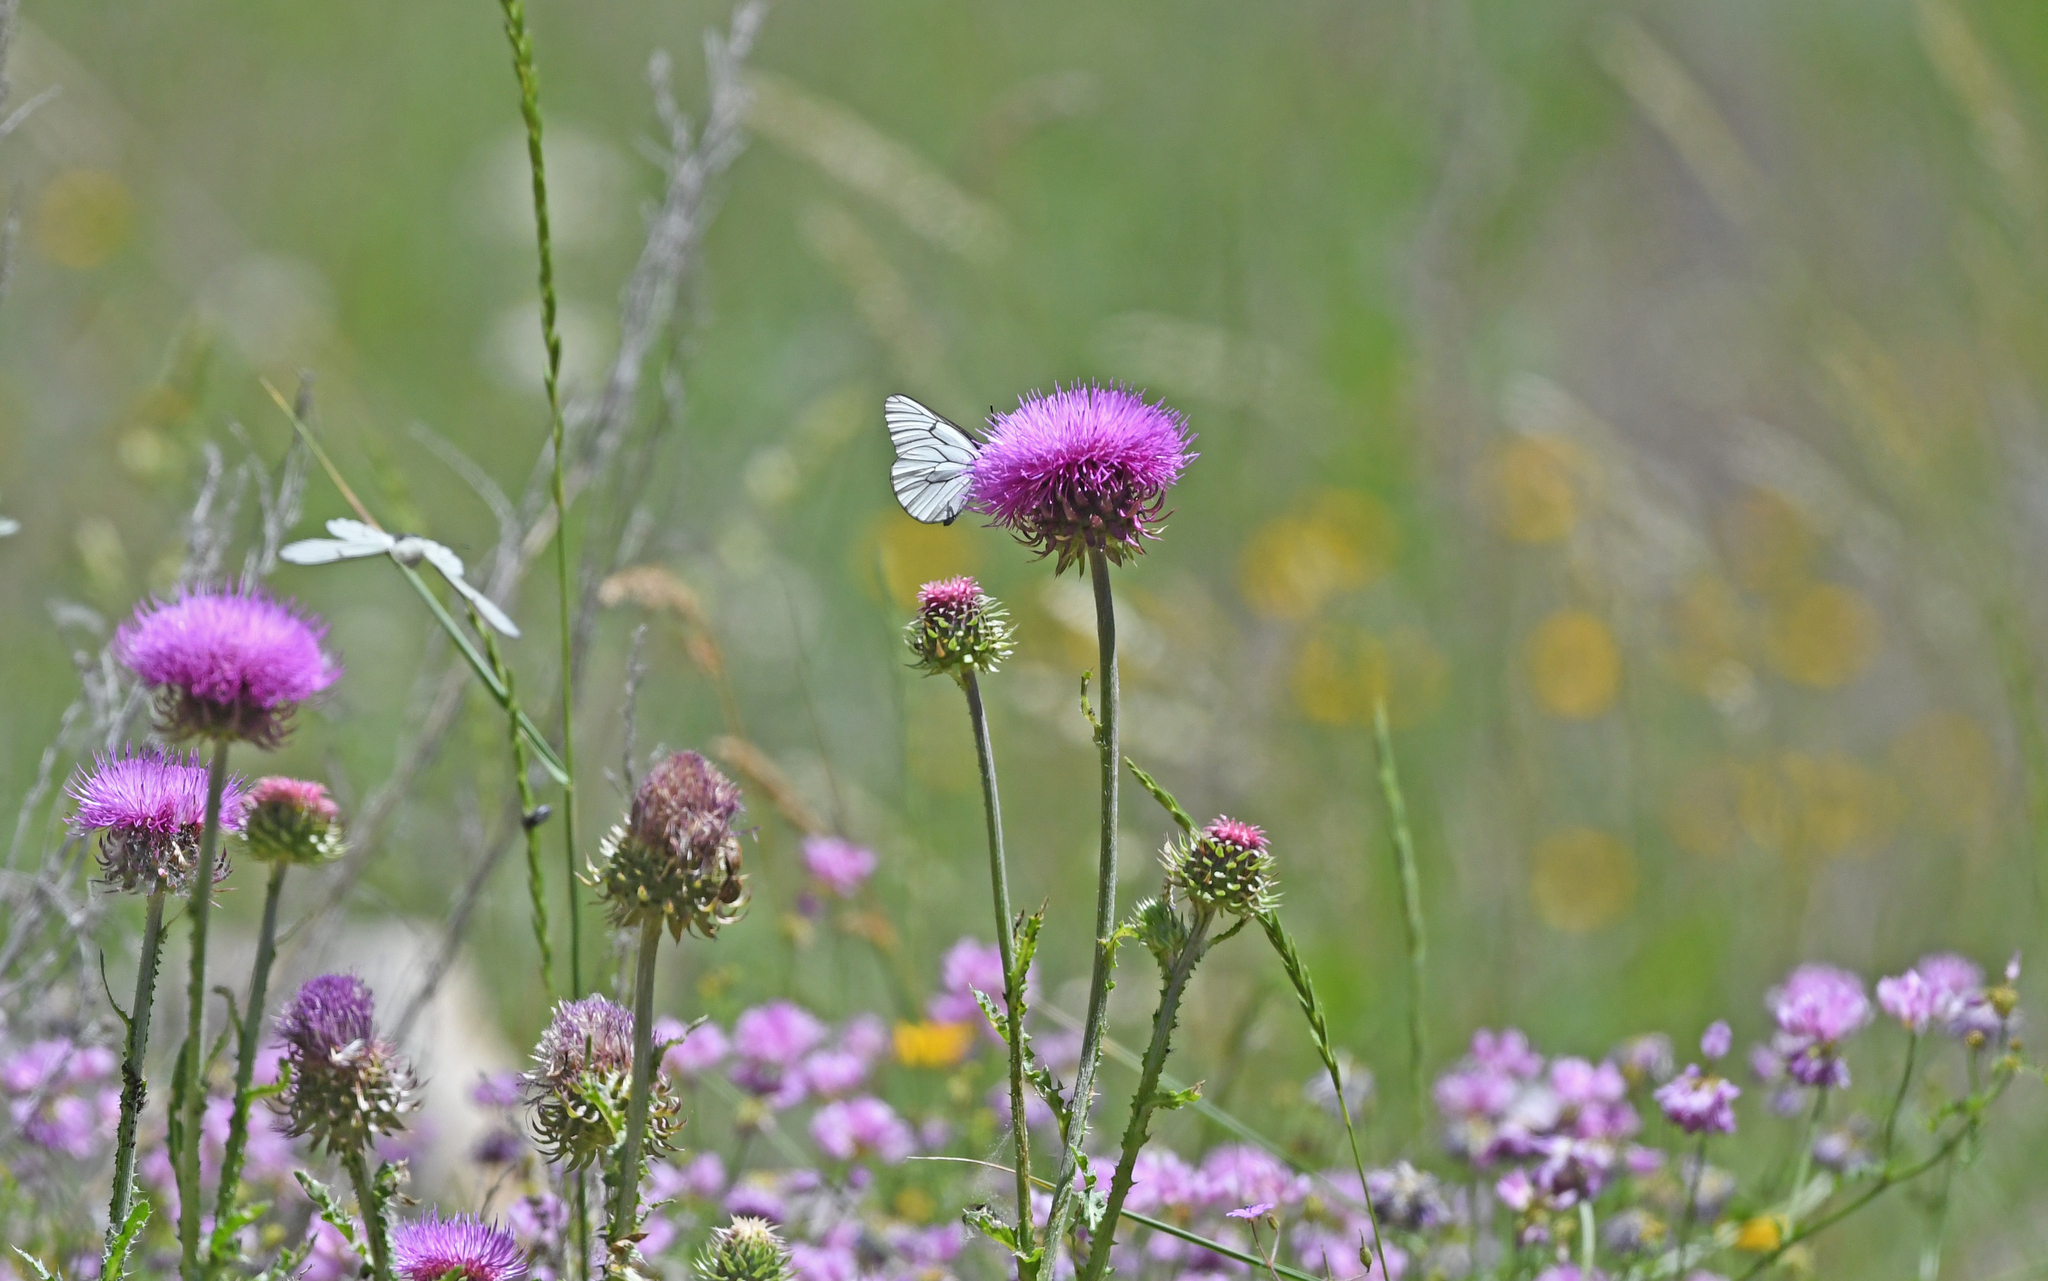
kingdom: Animalia
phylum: Arthropoda
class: Insecta
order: Lepidoptera
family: Pieridae
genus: Aporia
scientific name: Aporia crataegi
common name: Black-veined white
